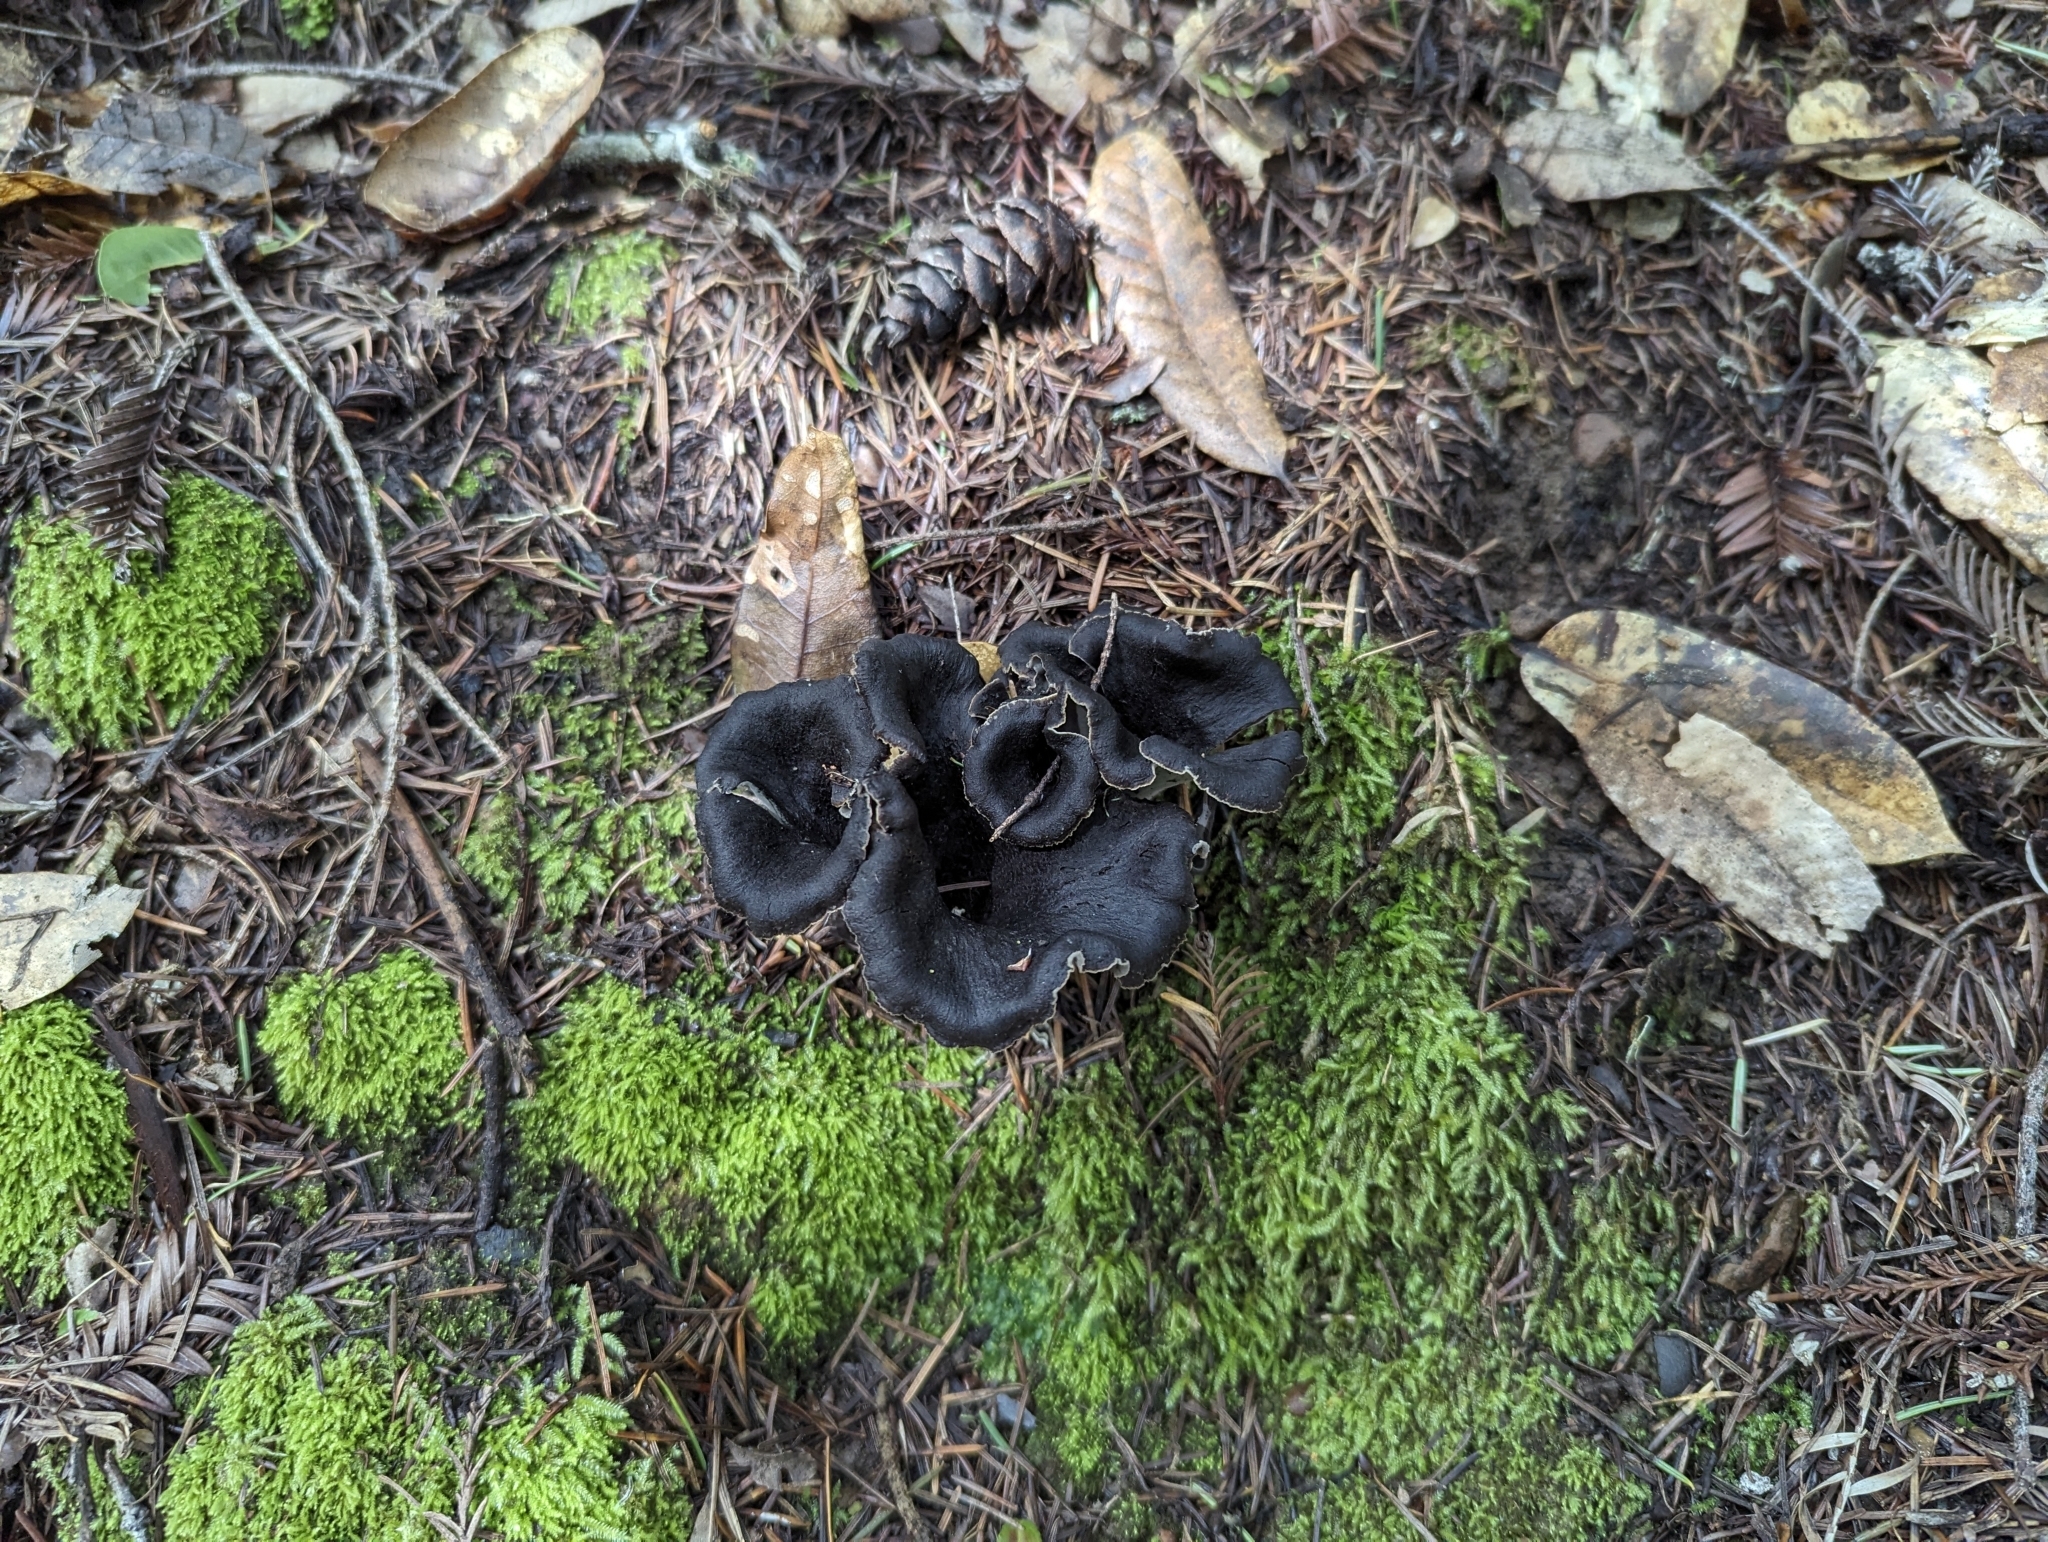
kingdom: Fungi
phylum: Basidiomycota
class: Agaricomycetes
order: Cantharellales
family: Hydnaceae
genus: Craterellus
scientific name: Craterellus calicornucopioides
